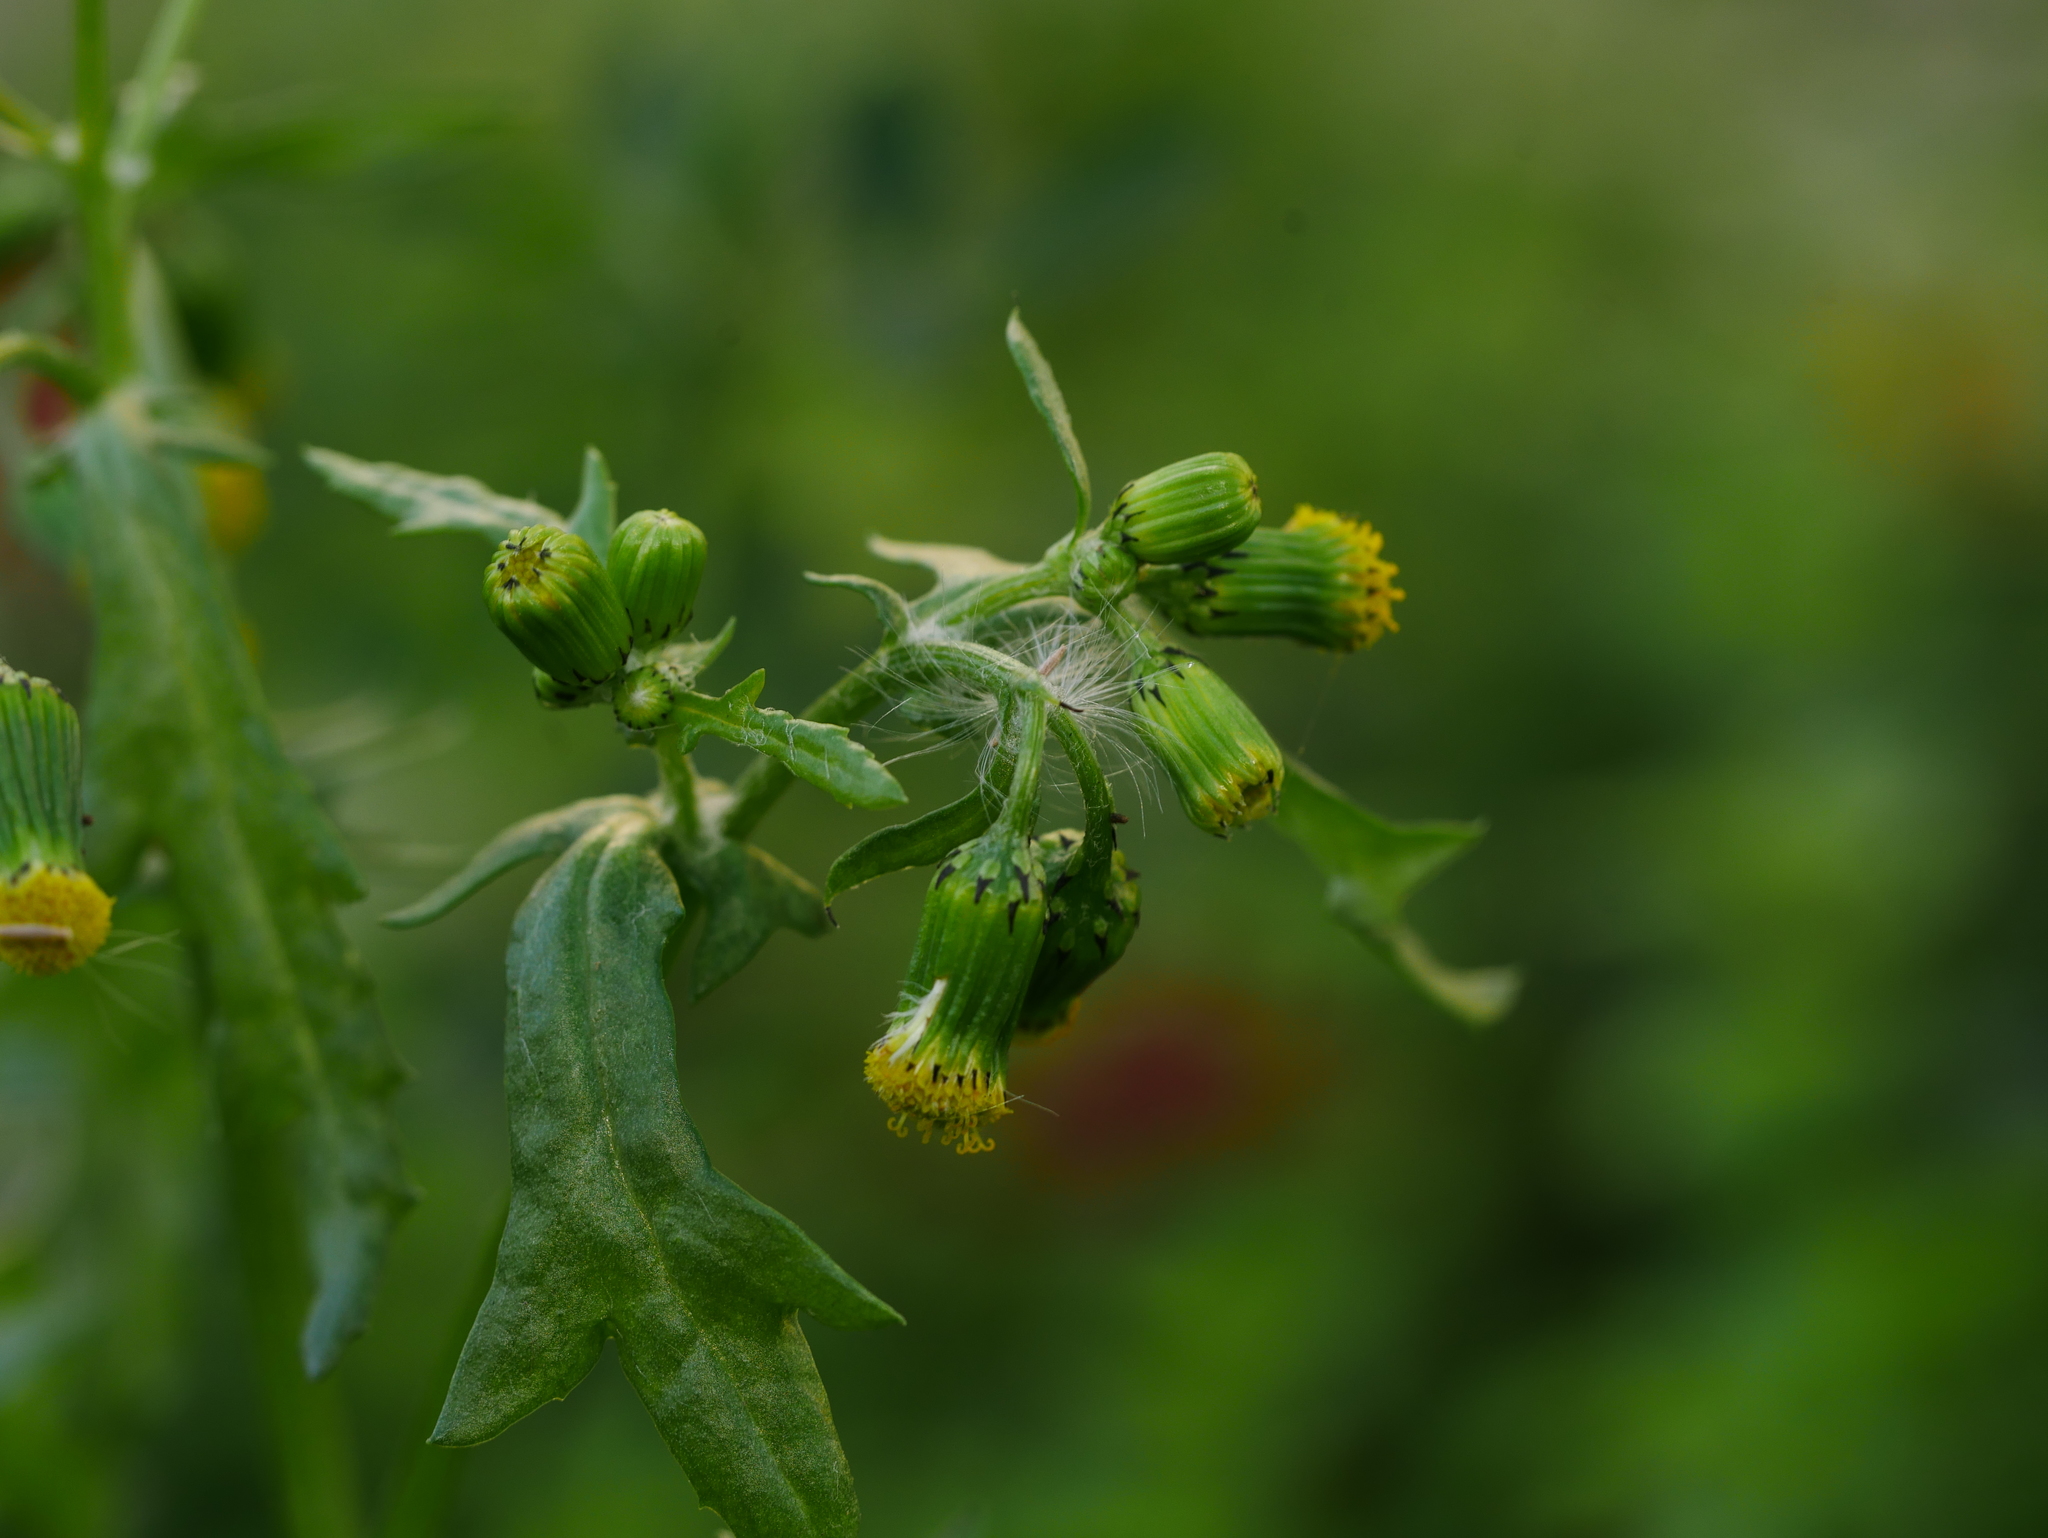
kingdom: Plantae
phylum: Tracheophyta
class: Magnoliopsida
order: Asterales
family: Asteraceae
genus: Senecio
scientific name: Senecio vulgaris
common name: Old-man-in-the-spring
